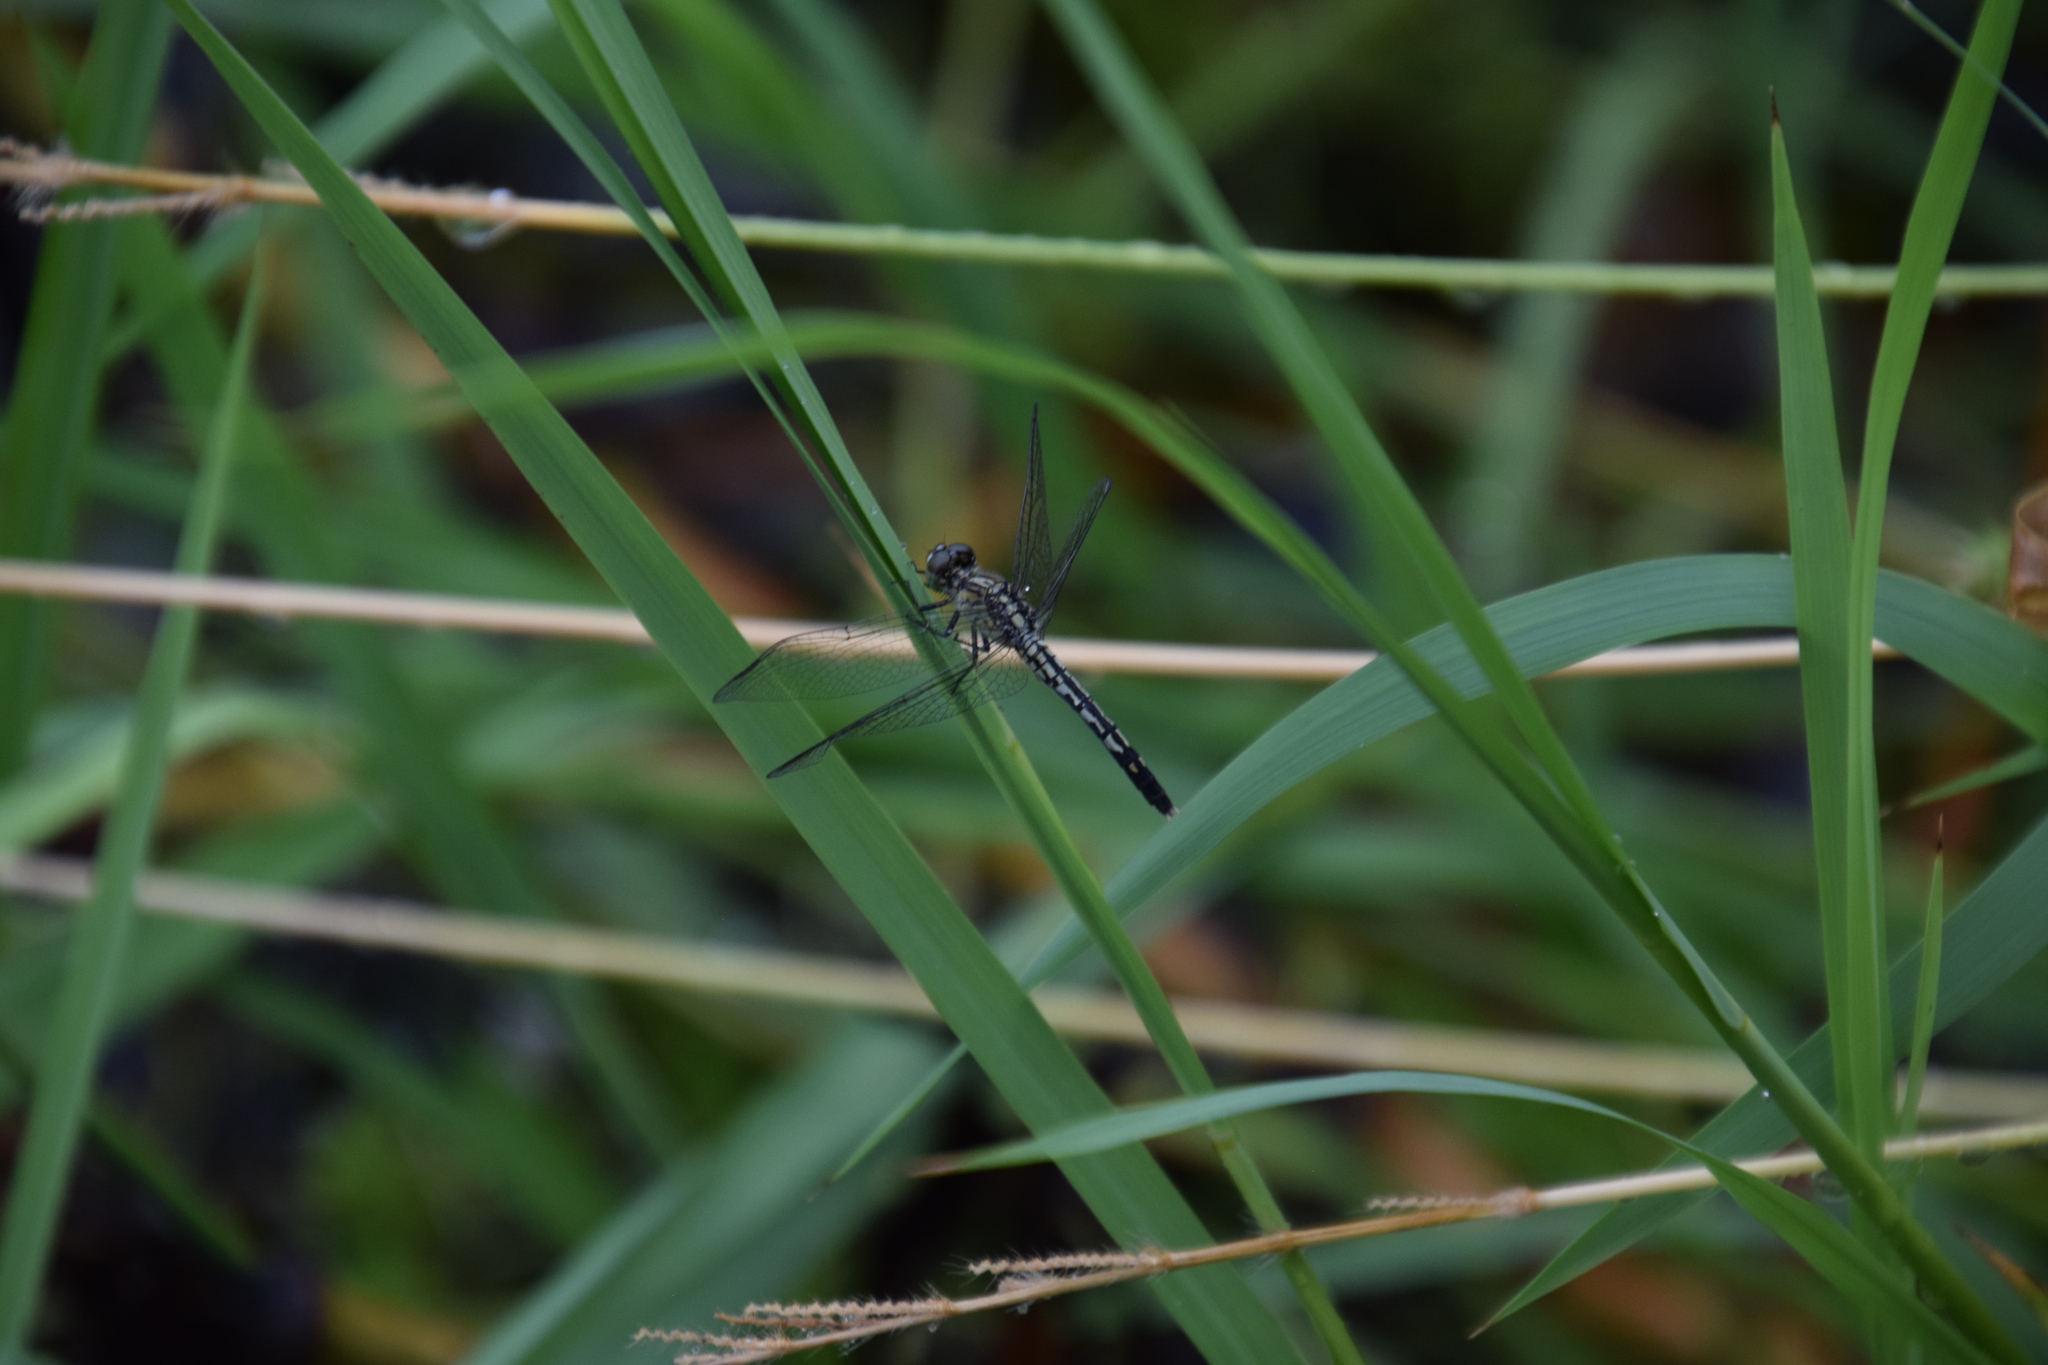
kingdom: Animalia
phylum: Arthropoda
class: Insecta
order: Odonata
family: Libellulidae
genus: Diplacodes
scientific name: Diplacodes trivialis
